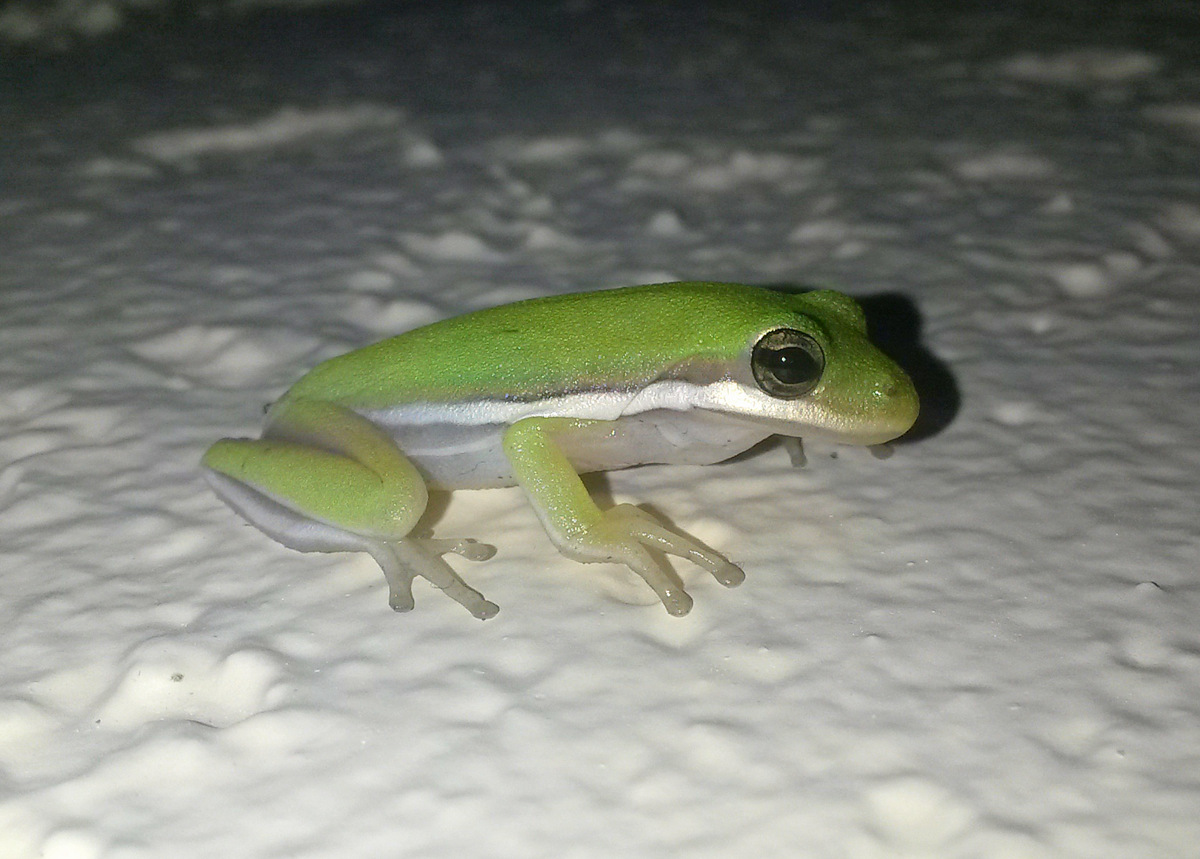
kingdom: Animalia
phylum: Chordata
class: Amphibia
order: Anura
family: Hylidae
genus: Dryophytes
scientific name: Dryophytes cinereus
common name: Green treefrog
